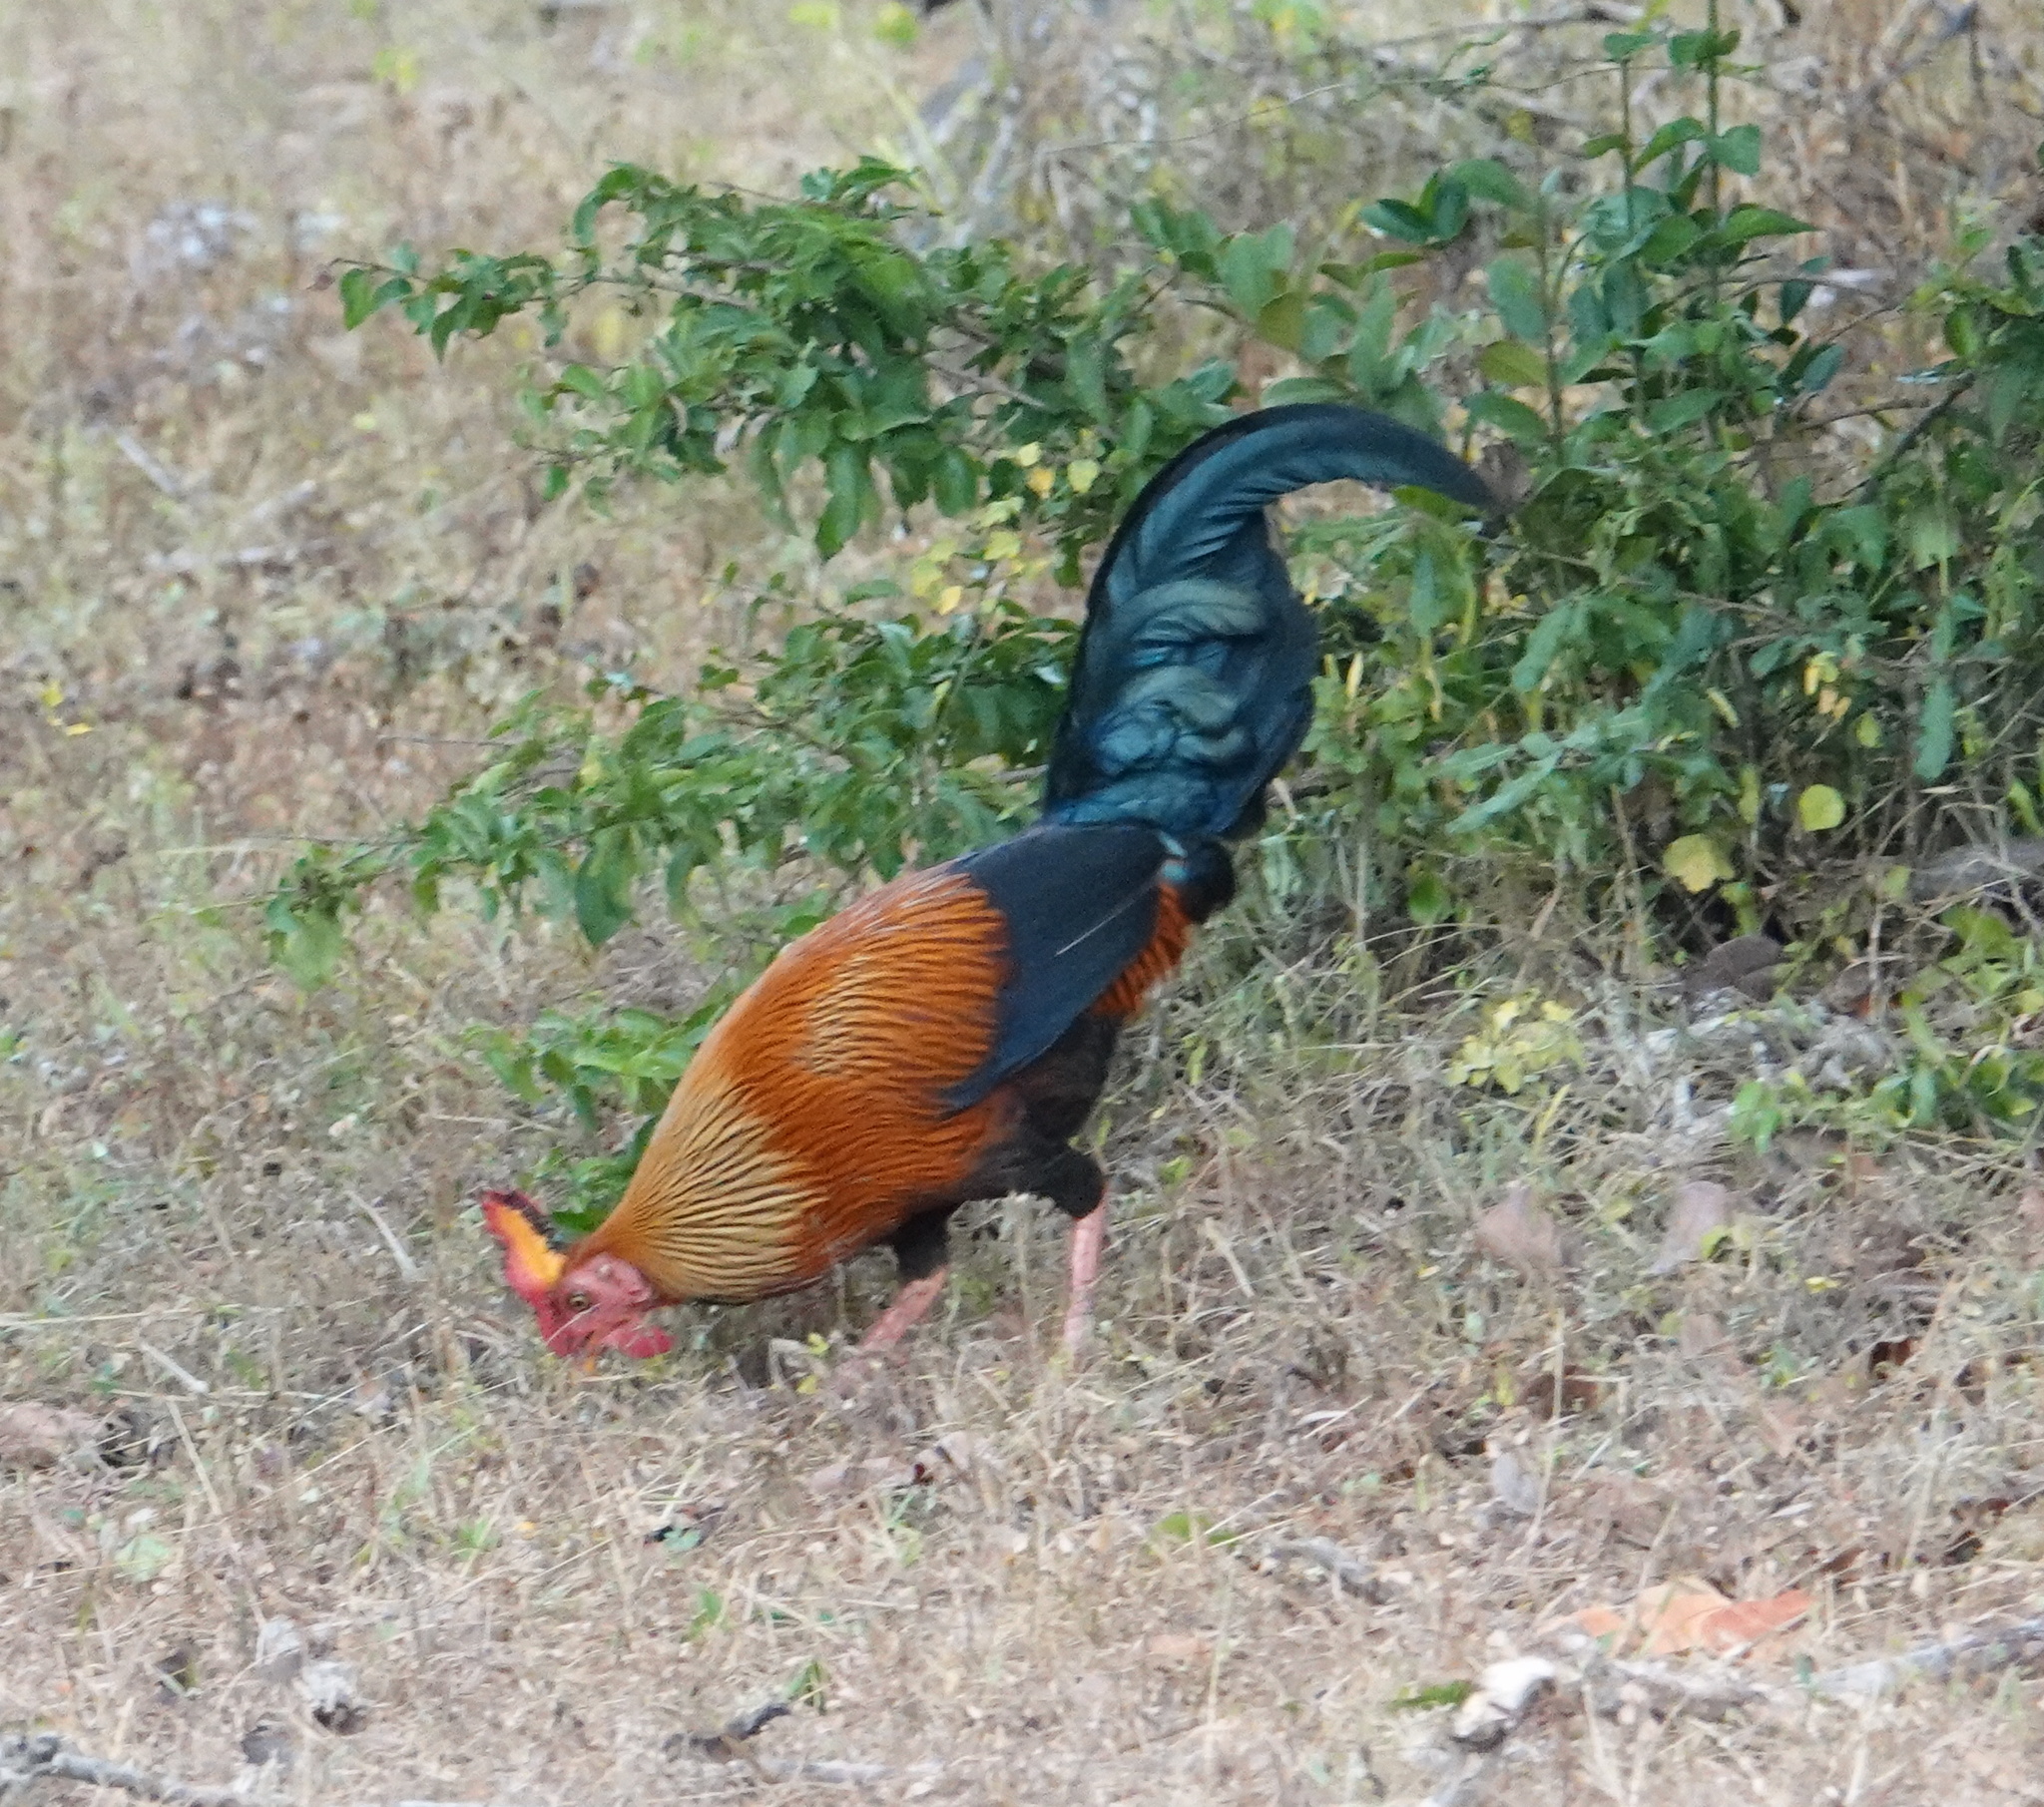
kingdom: Animalia
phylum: Chordata
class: Aves
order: Galliformes
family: Phasianidae
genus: Gallus
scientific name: Gallus lafayettii
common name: Sri lanka junglefowl
